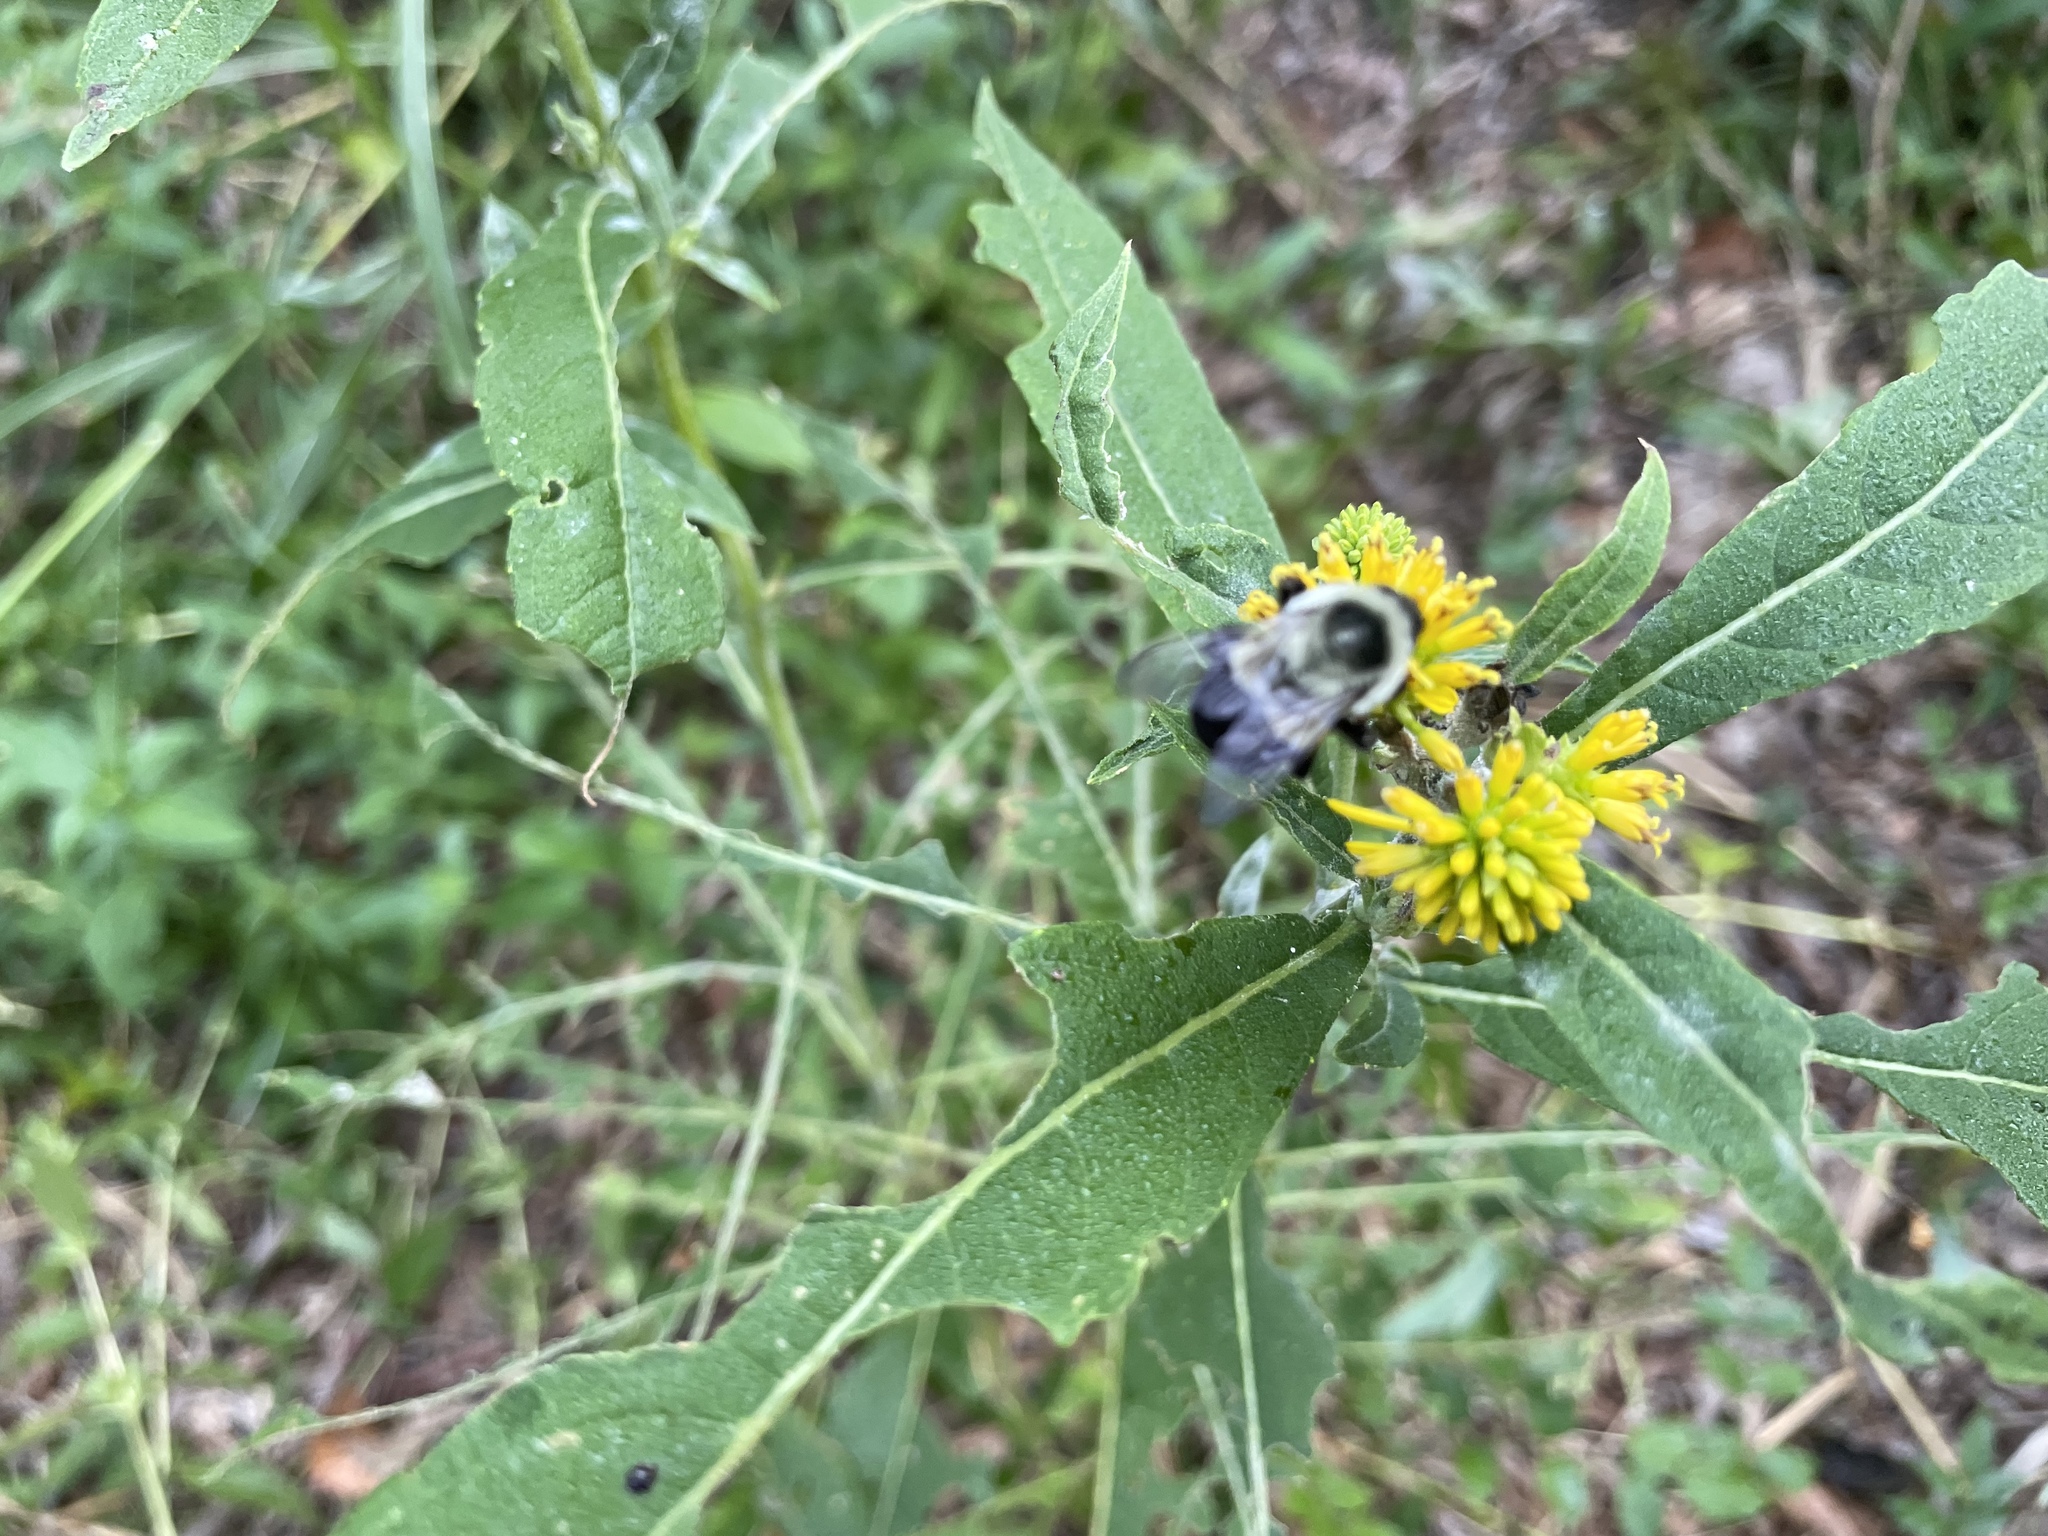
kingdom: Animalia
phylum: Arthropoda
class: Insecta
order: Hymenoptera
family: Apidae
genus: Bombus
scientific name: Bombus impatiens
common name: Common eastern bumble bee
